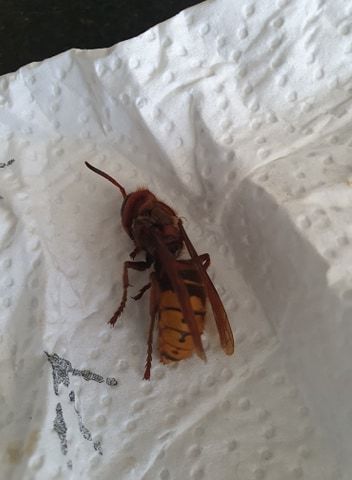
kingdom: Animalia
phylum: Arthropoda
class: Insecta
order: Hymenoptera
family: Vespidae
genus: Vespa
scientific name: Vespa crabro
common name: Hornet
